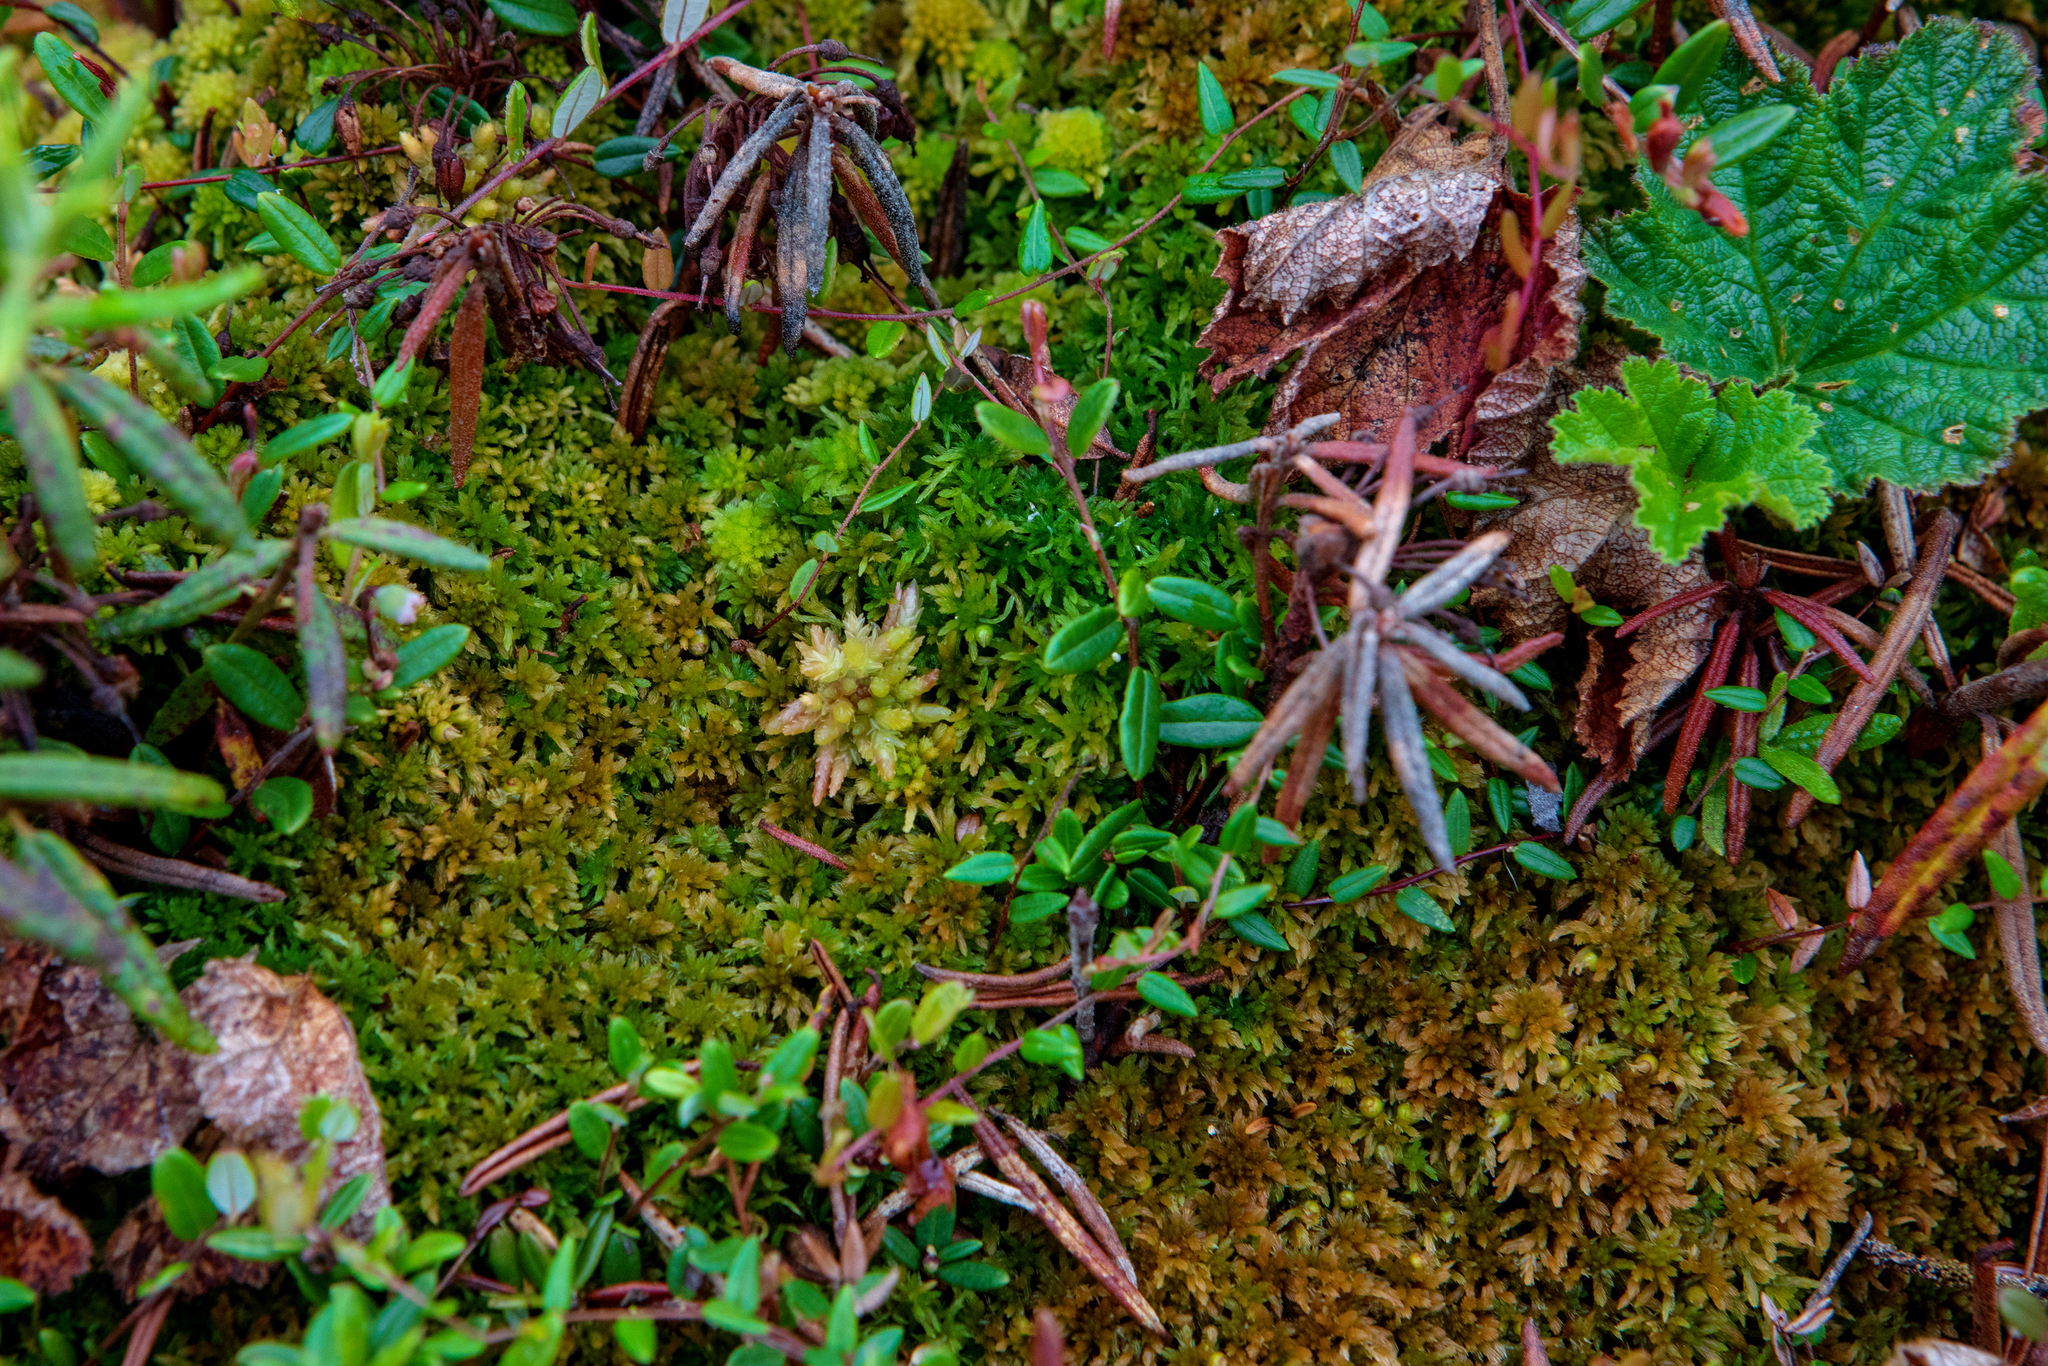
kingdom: Plantae
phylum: Bryophyta
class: Sphagnopsida
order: Sphagnales
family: Sphagnaceae
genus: Sphagnum
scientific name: Sphagnum fuscum
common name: Brown peat moss
